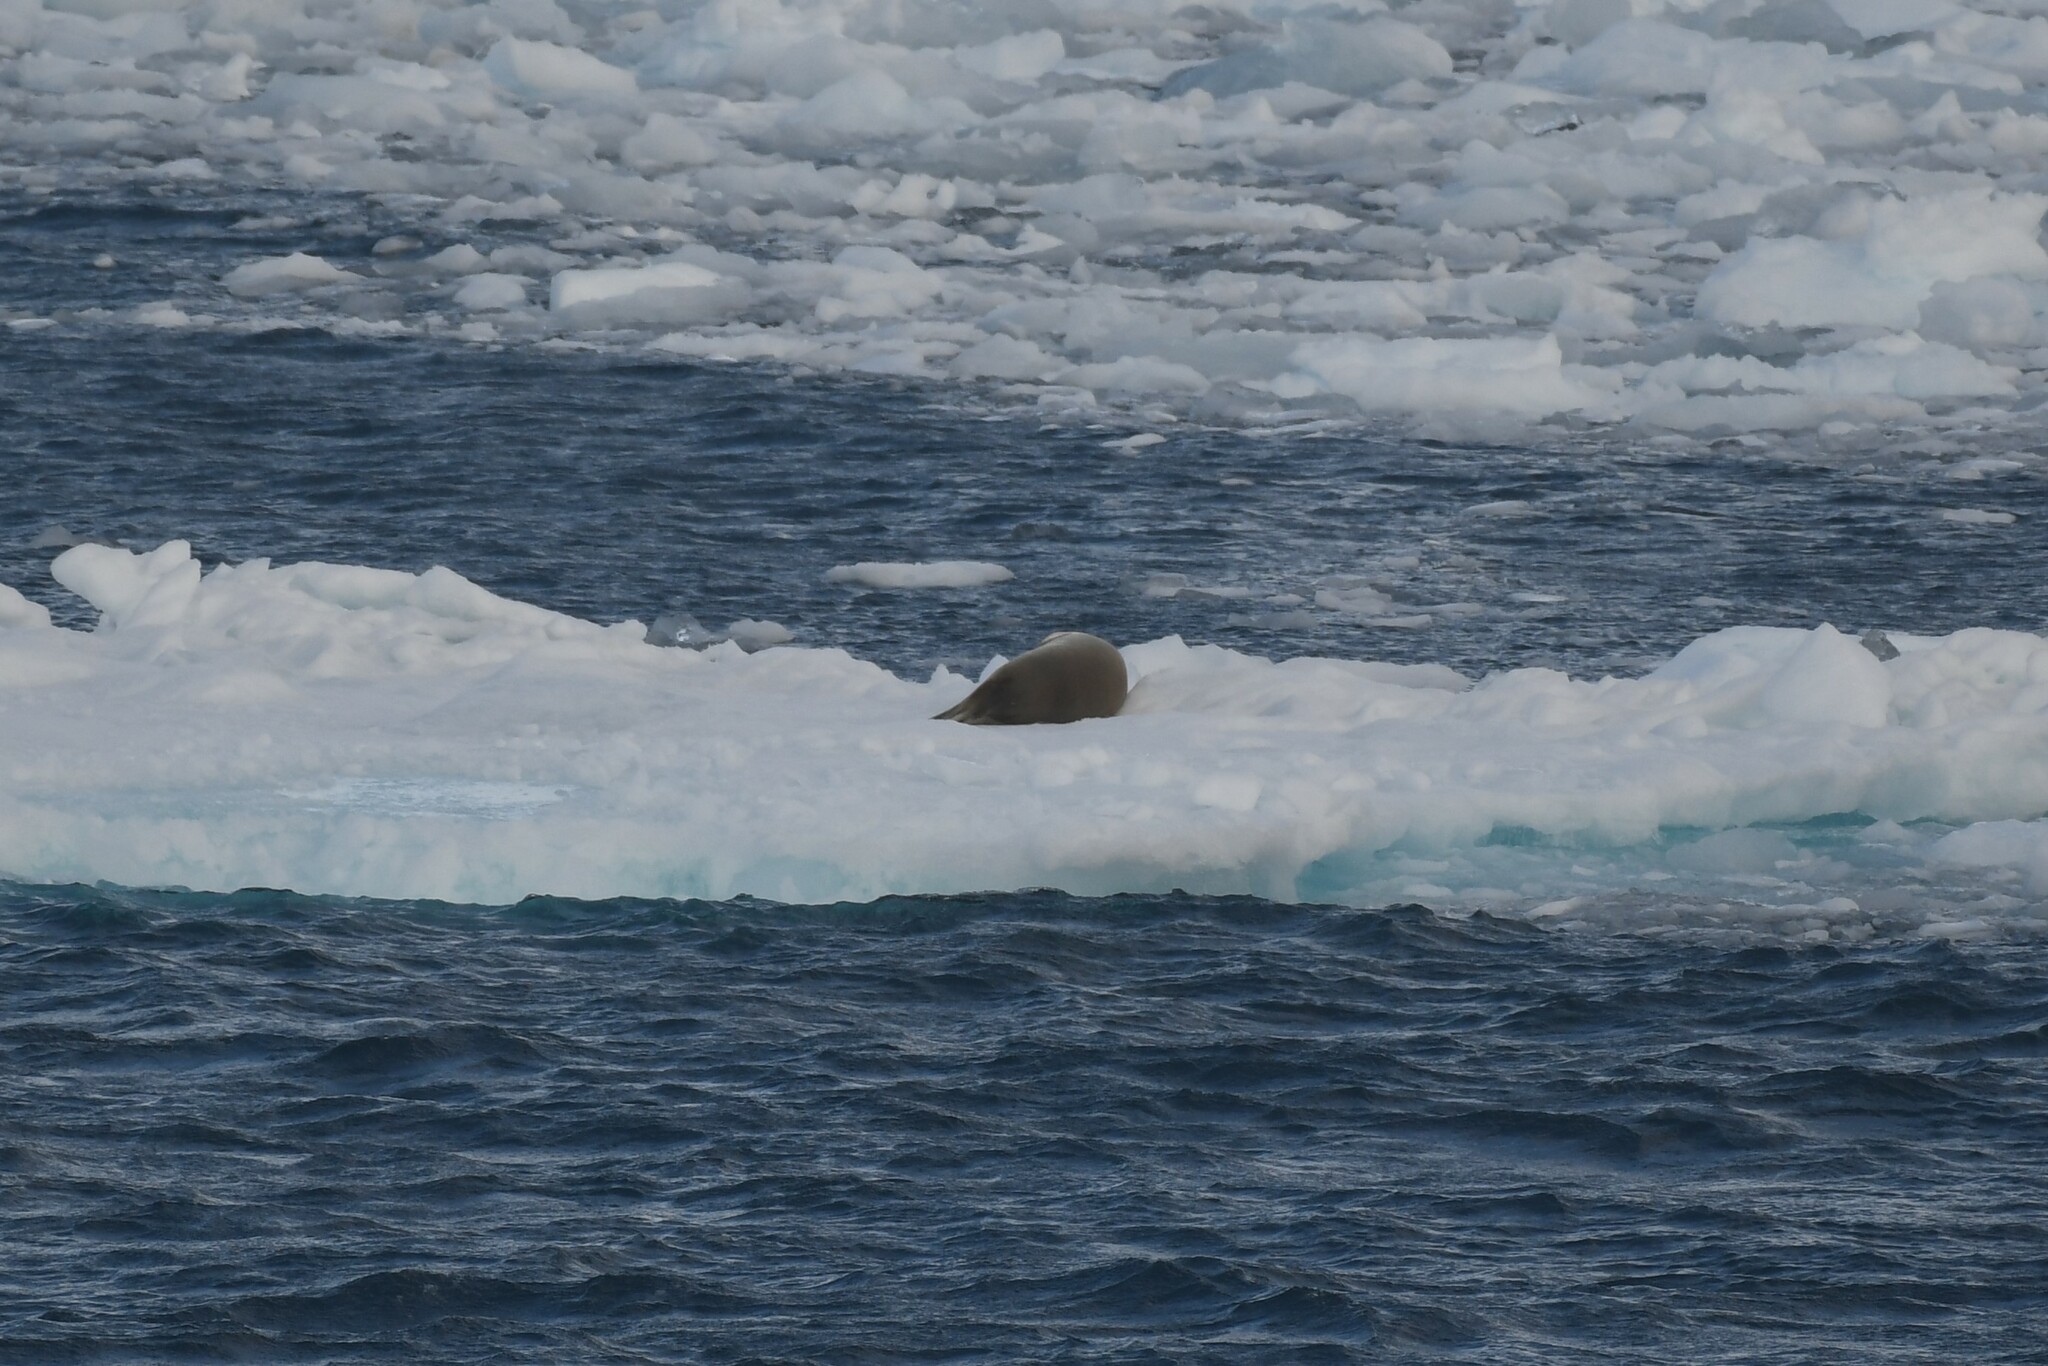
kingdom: Animalia
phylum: Chordata
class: Mammalia
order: Carnivora
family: Phocidae
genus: Lobodon
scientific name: Lobodon carcinophaga
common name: Crabeater seal
